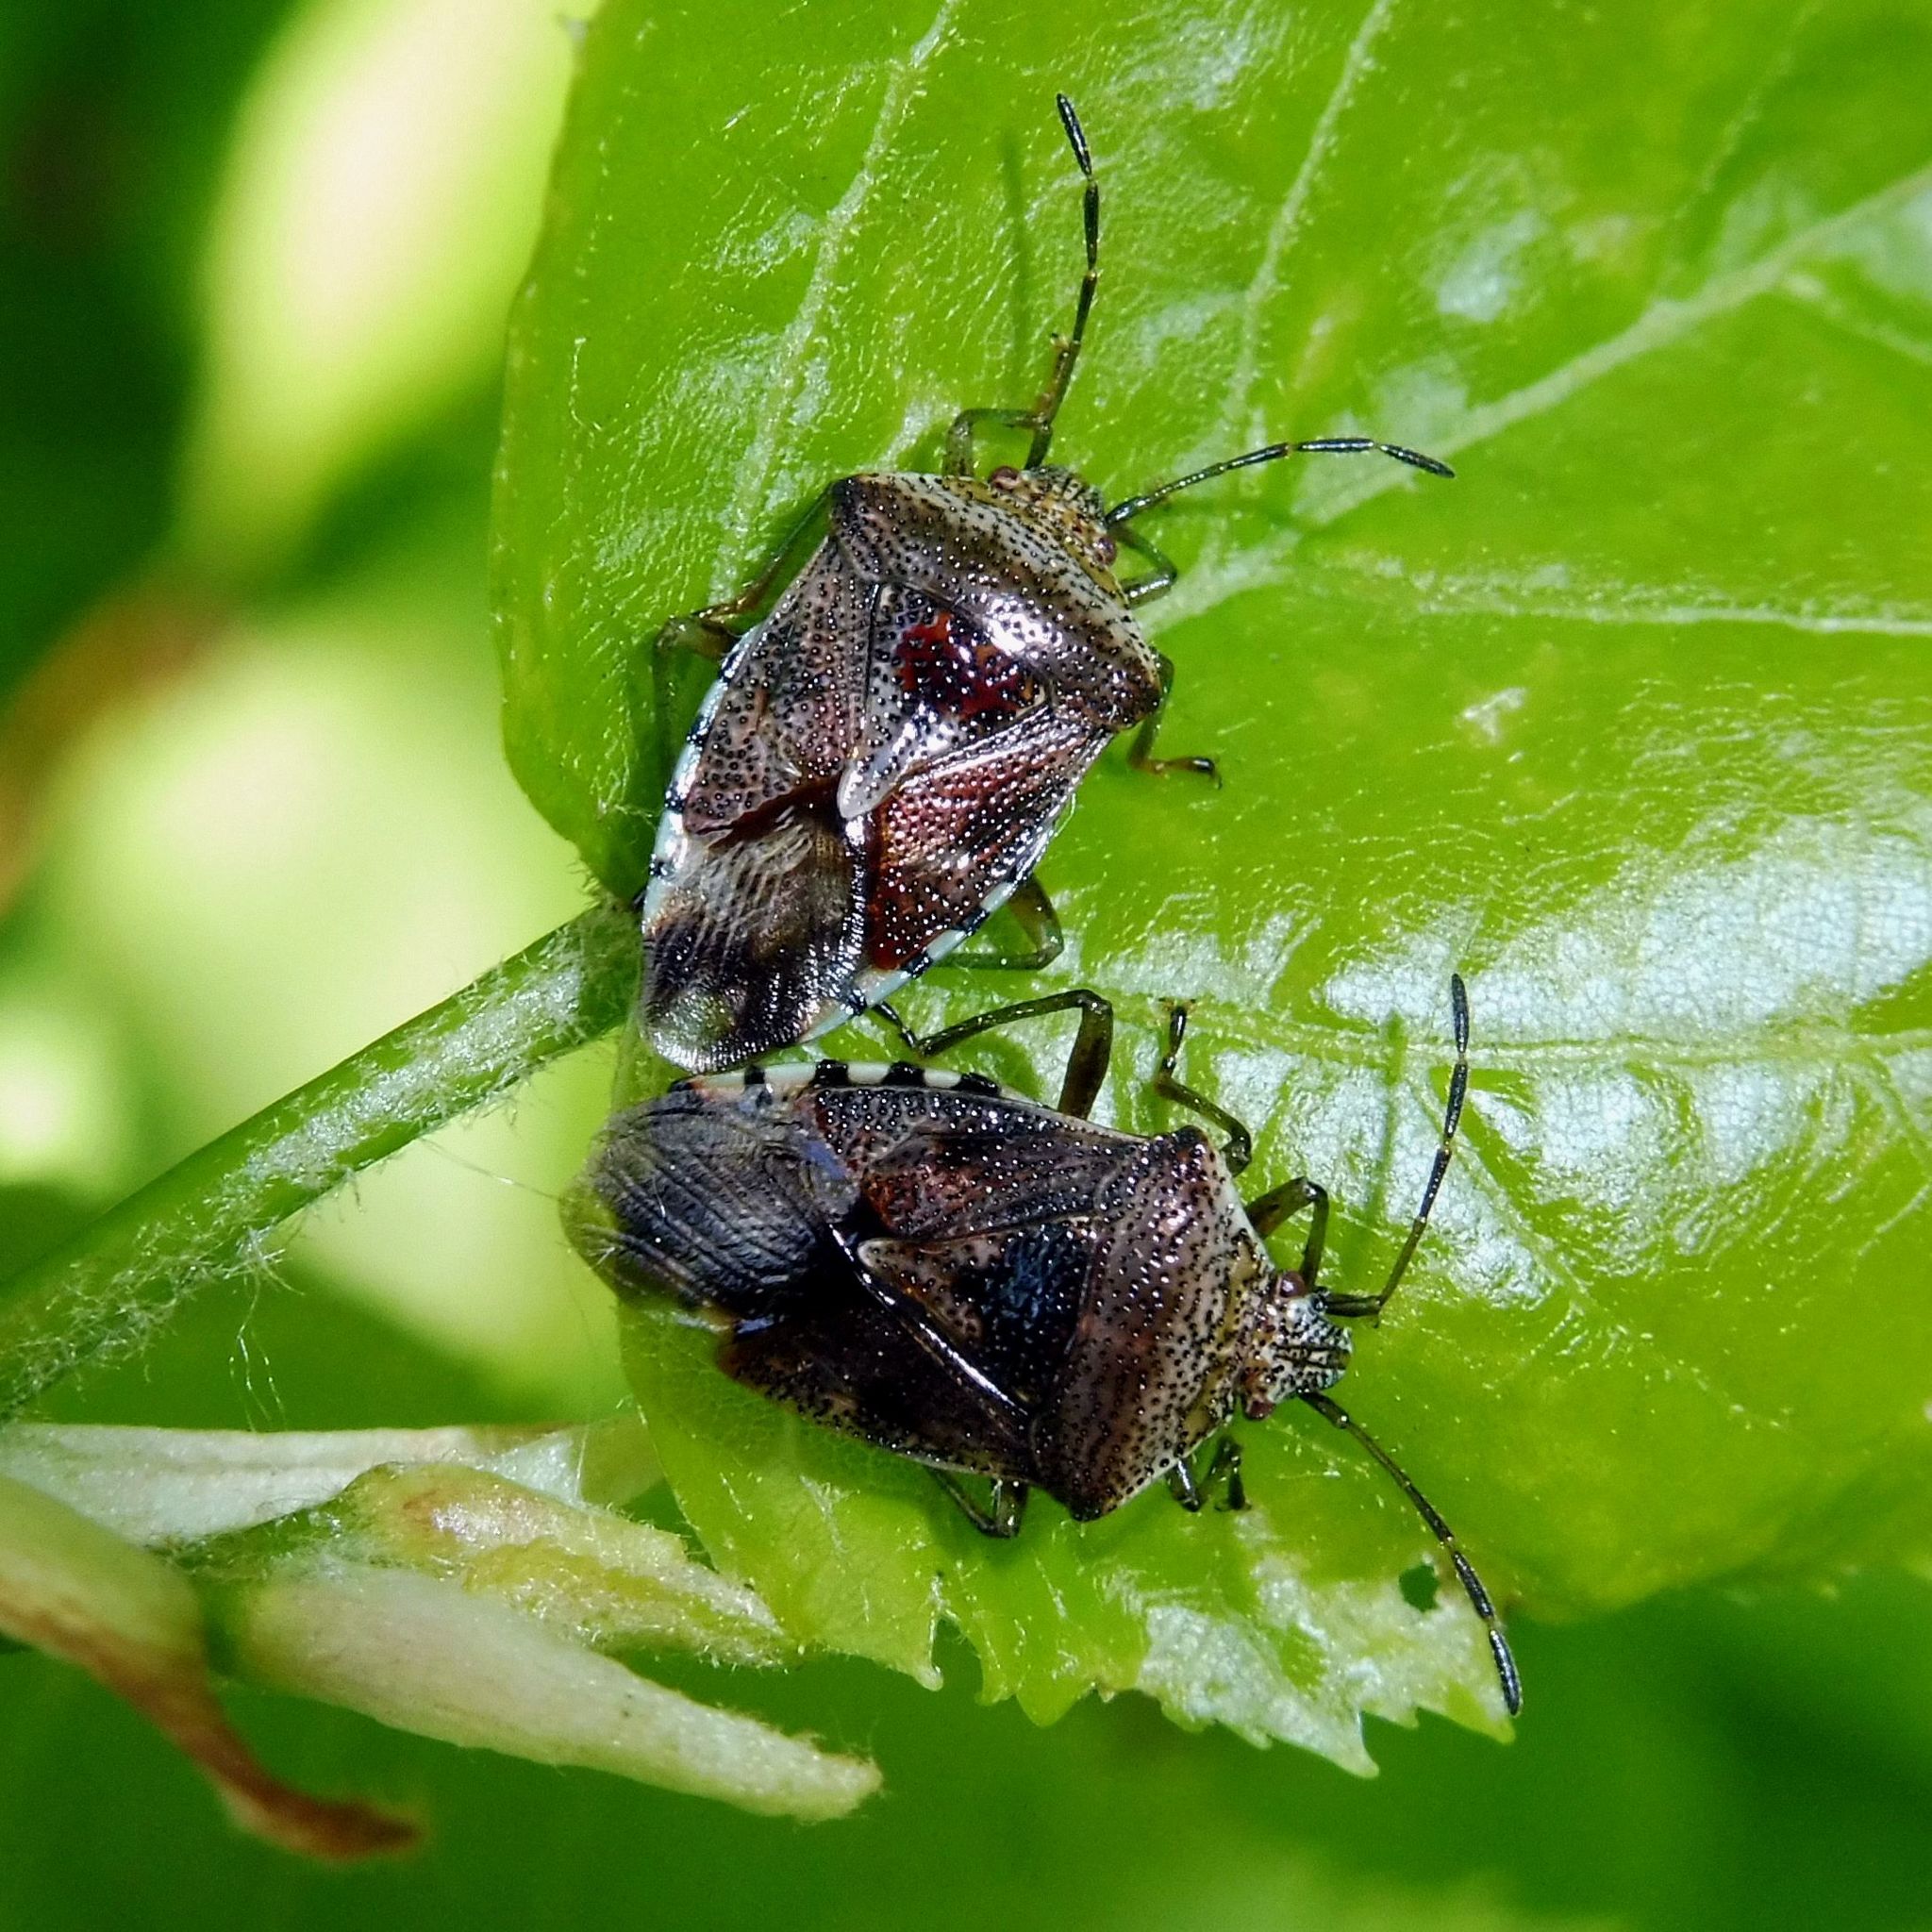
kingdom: Animalia
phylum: Arthropoda
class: Insecta
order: Hemiptera
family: Acanthosomatidae
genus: Elasmucha
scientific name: Elasmucha grisea
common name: Parent bug
